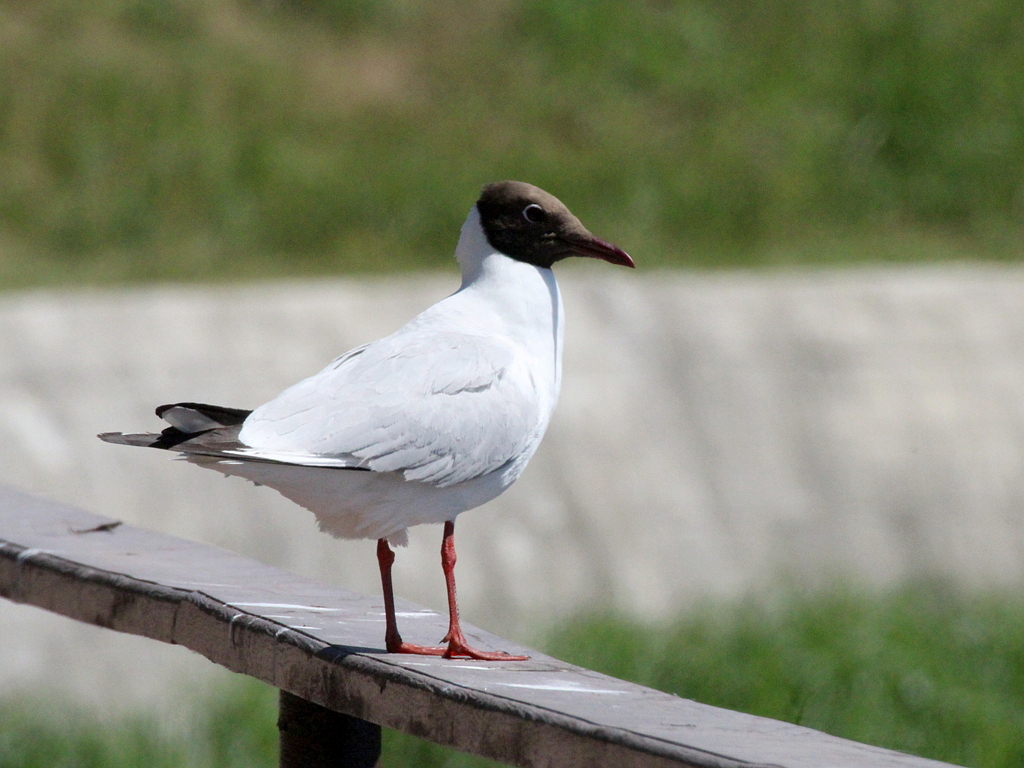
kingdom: Animalia
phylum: Chordata
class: Aves
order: Charadriiformes
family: Laridae
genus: Chroicocephalus
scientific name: Chroicocephalus ridibundus
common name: Black-headed gull
